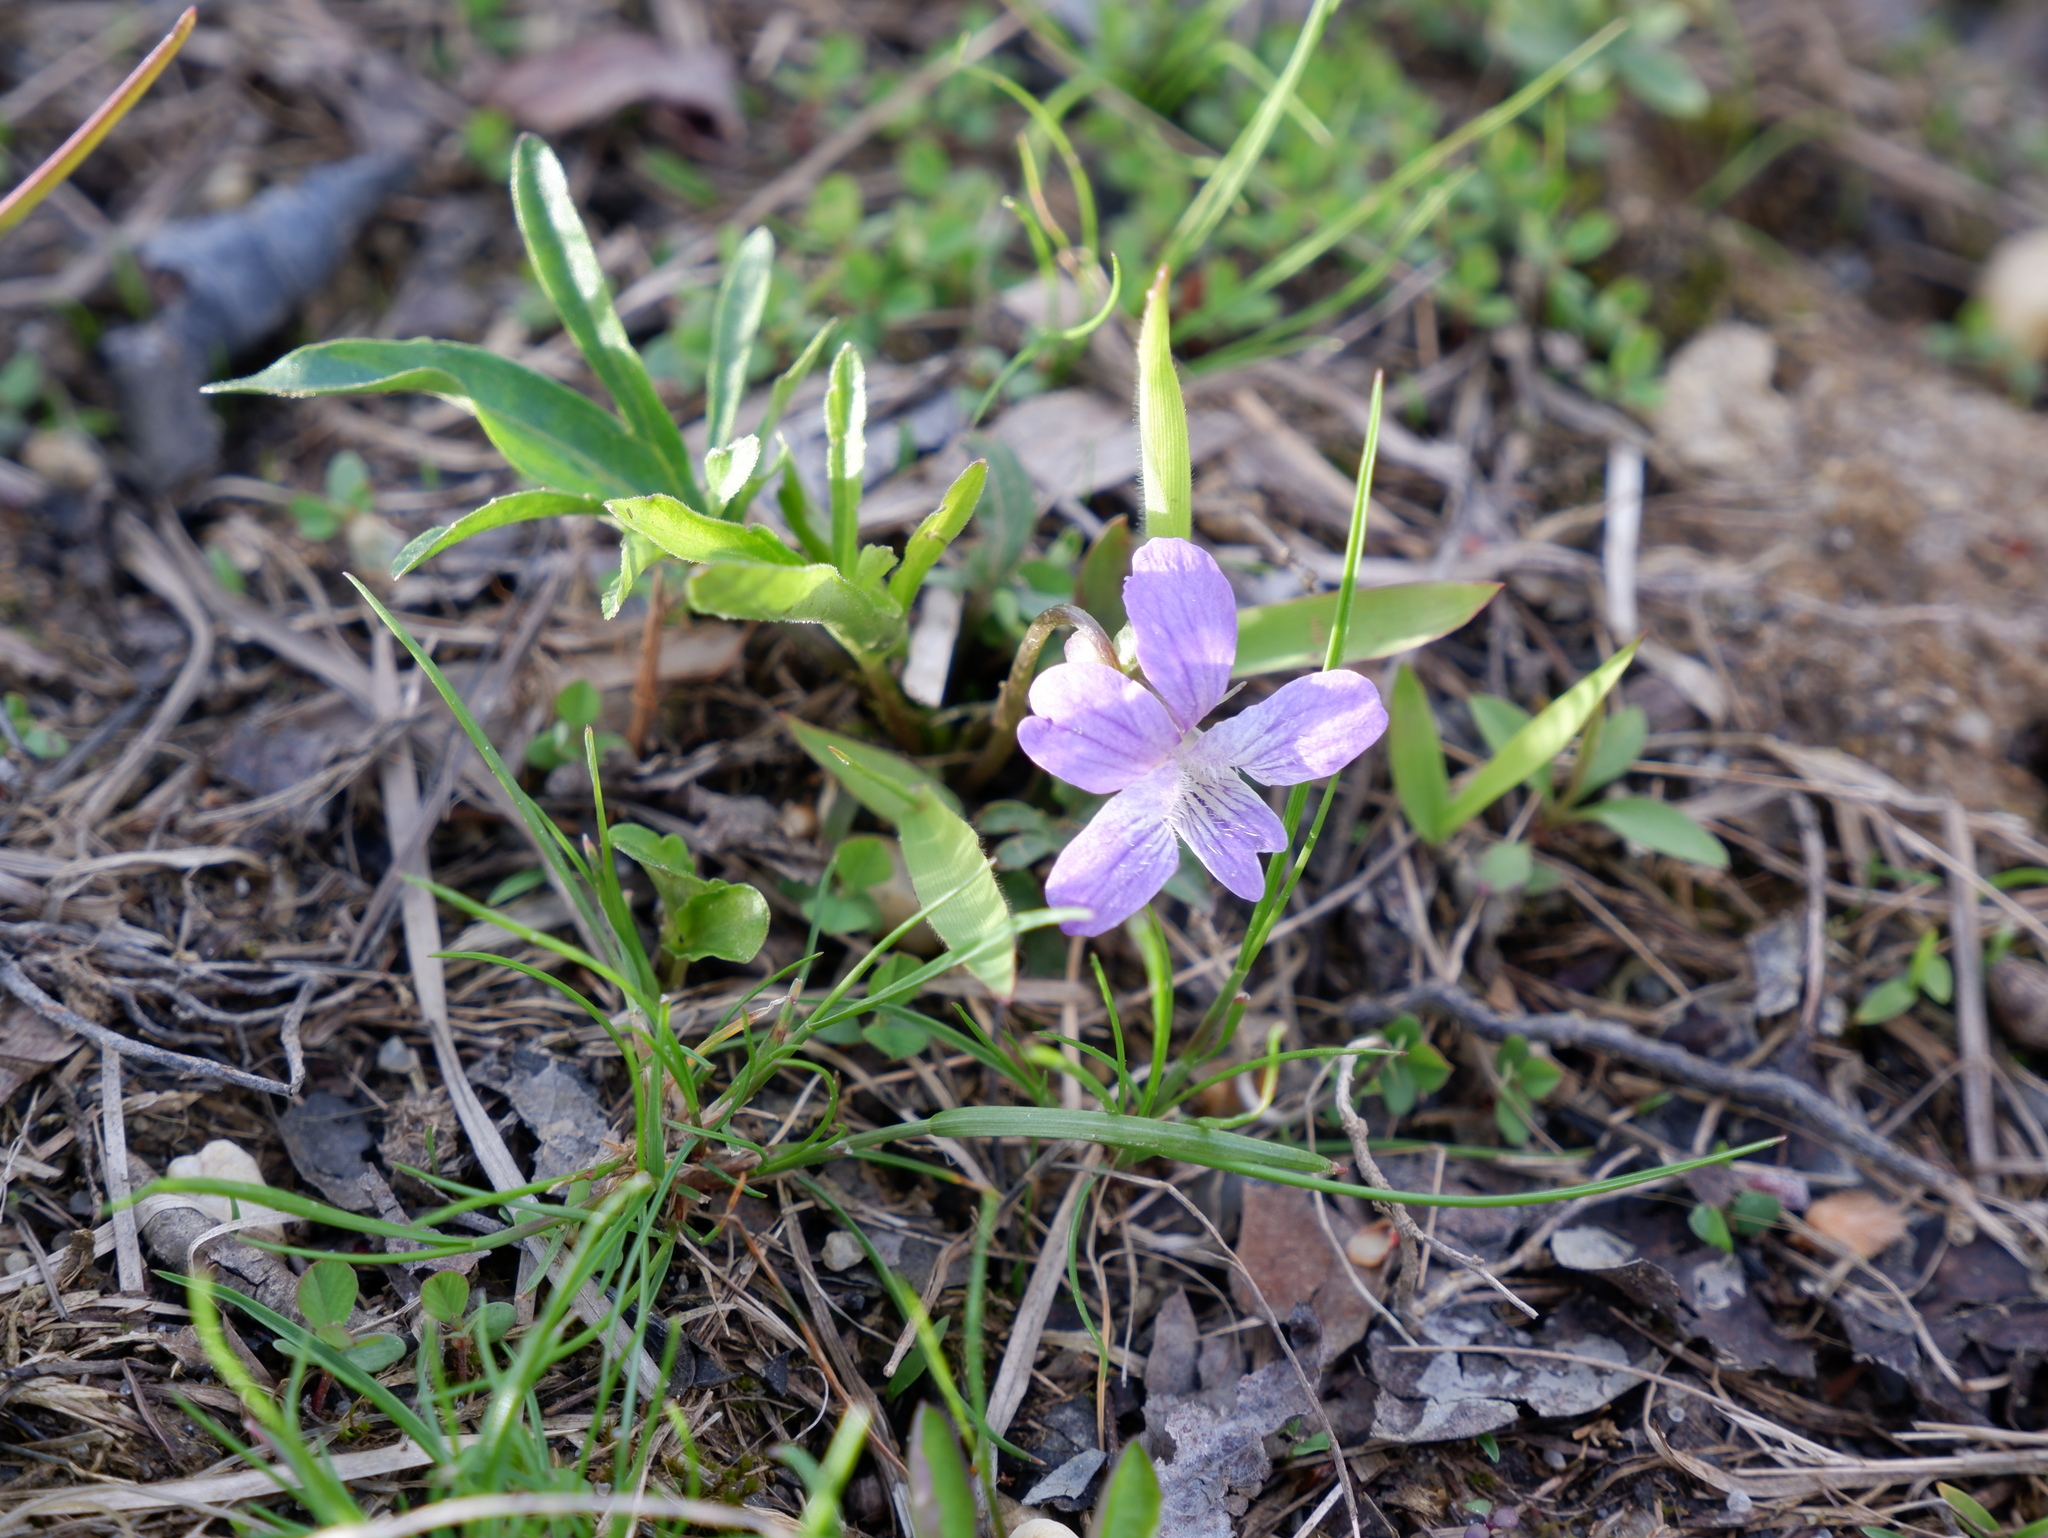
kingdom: Plantae
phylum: Tracheophyta
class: Magnoliopsida
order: Malpighiales
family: Violaceae
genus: Viola
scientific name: Viola brittoniana
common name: Northern coastal violet
